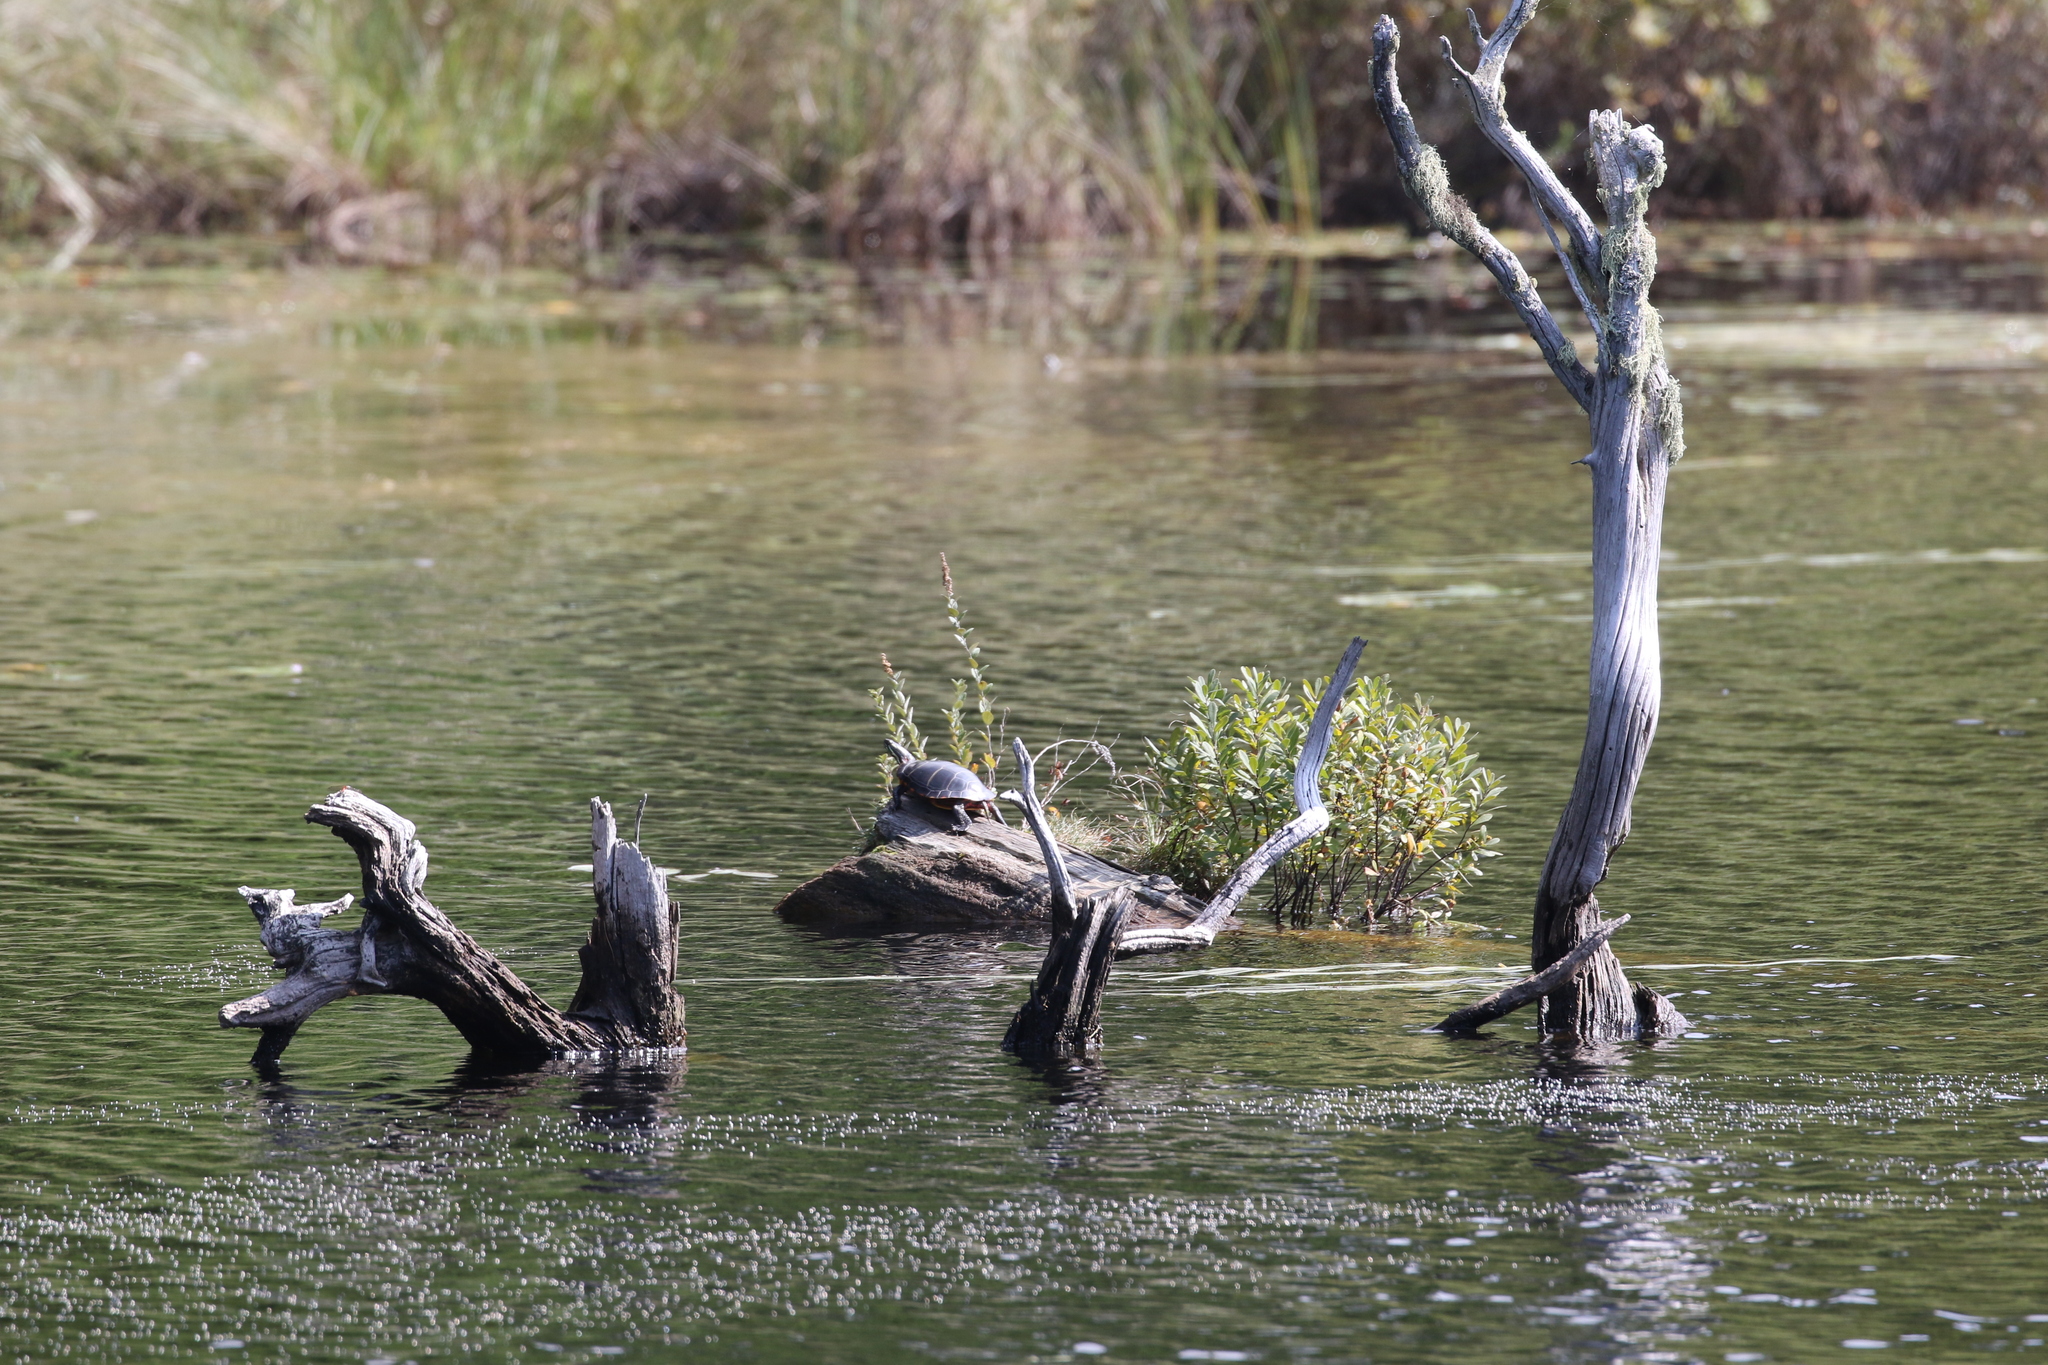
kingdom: Animalia
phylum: Chordata
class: Testudines
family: Emydidae
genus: Chrysemys
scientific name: Chrysemys picta
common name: Painted turtle
